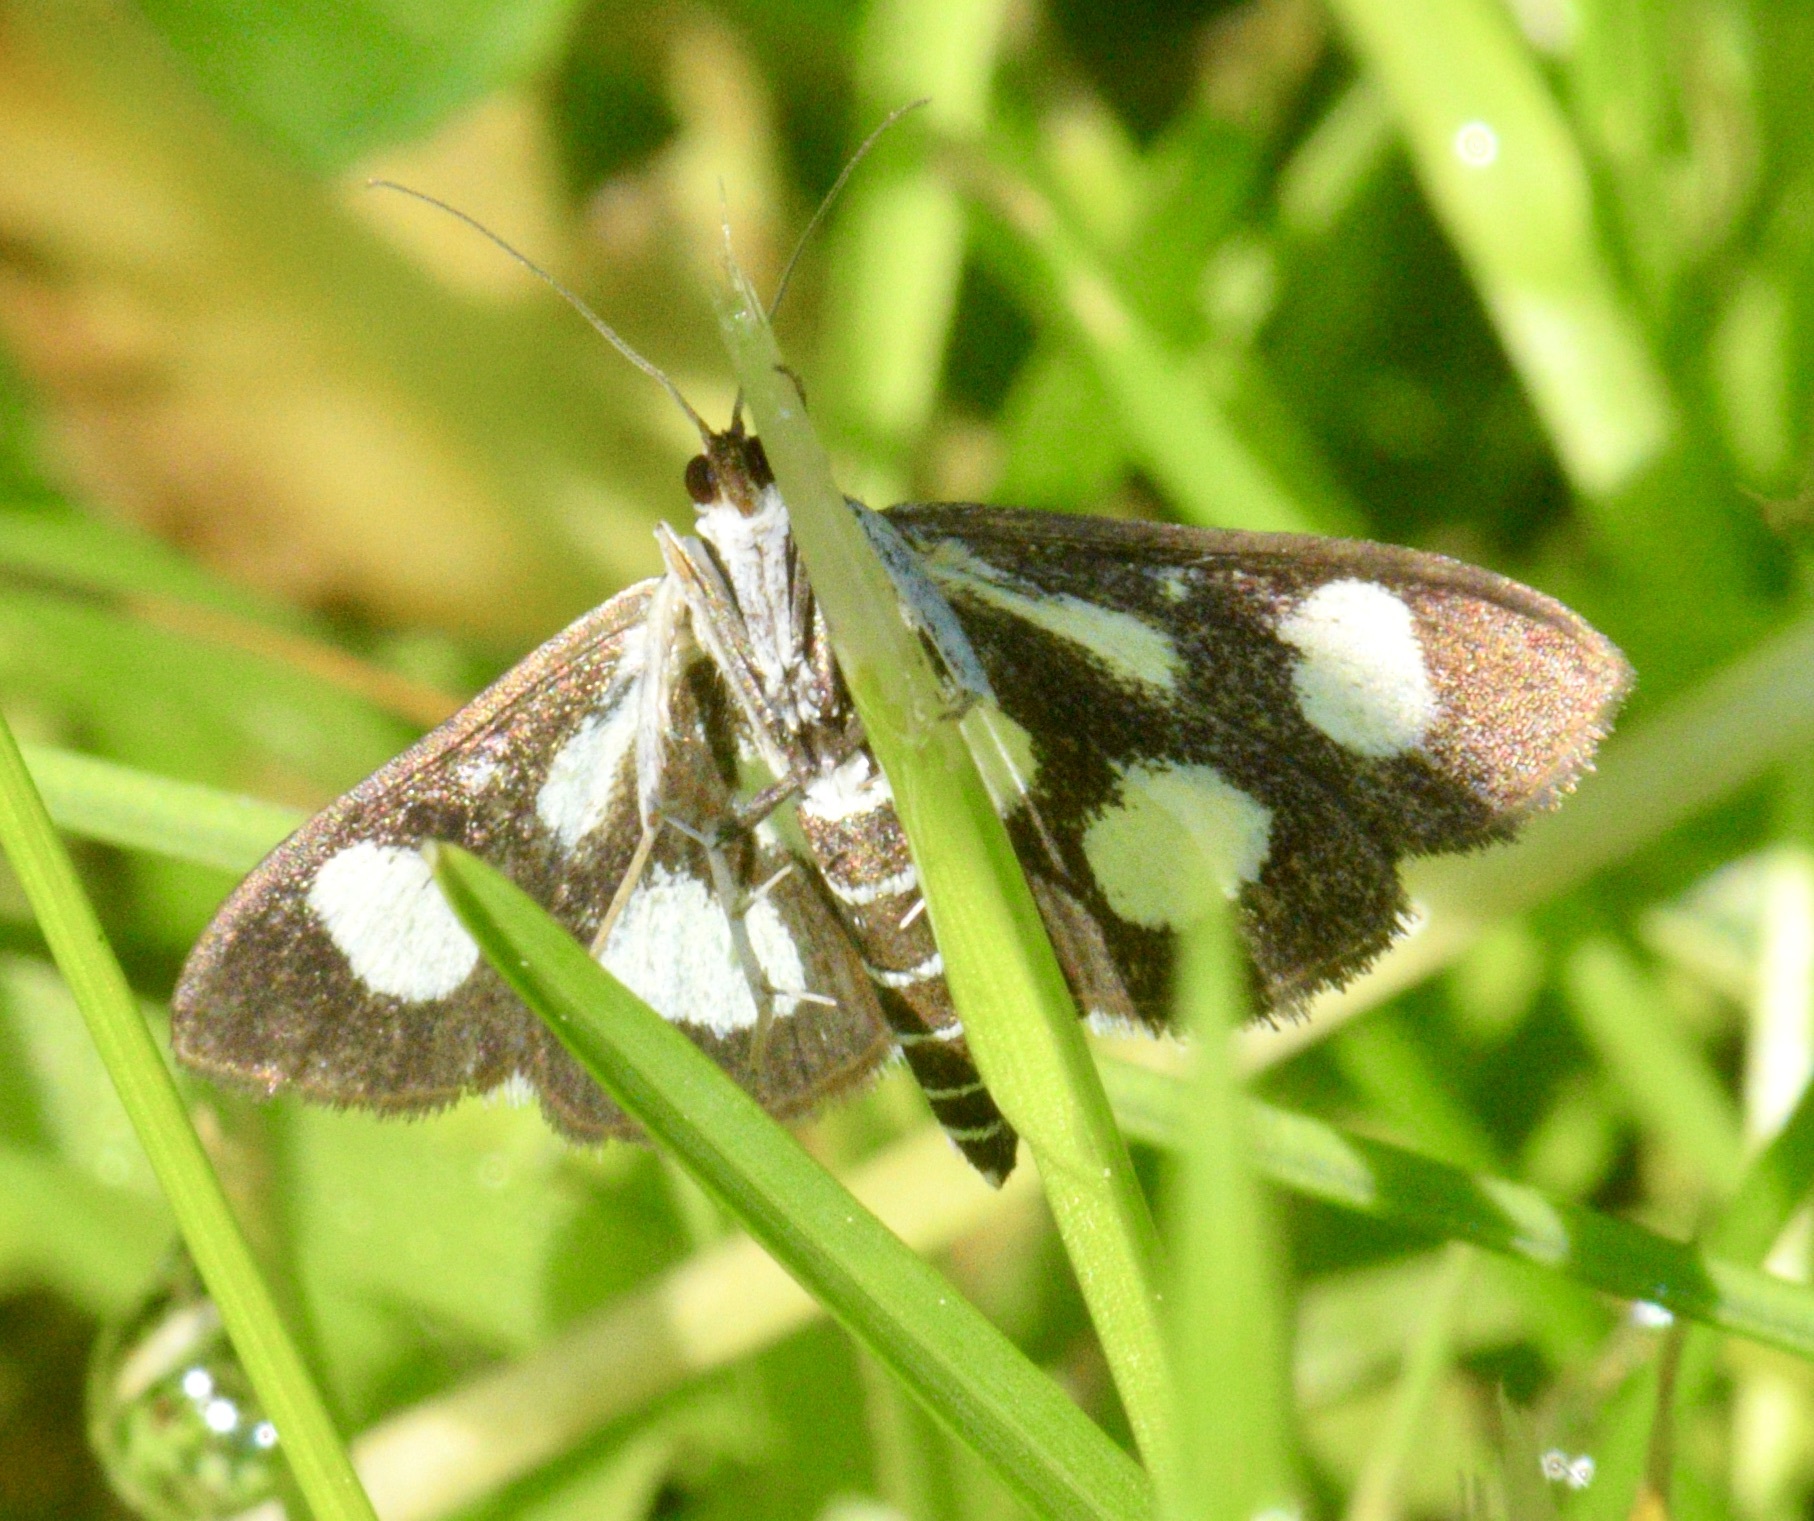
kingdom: Animalia
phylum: Arthropoda
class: Insecta
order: Lepidoptera
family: Crambidae
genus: Anania
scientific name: Anania funebris
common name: White-spotted sable moth
